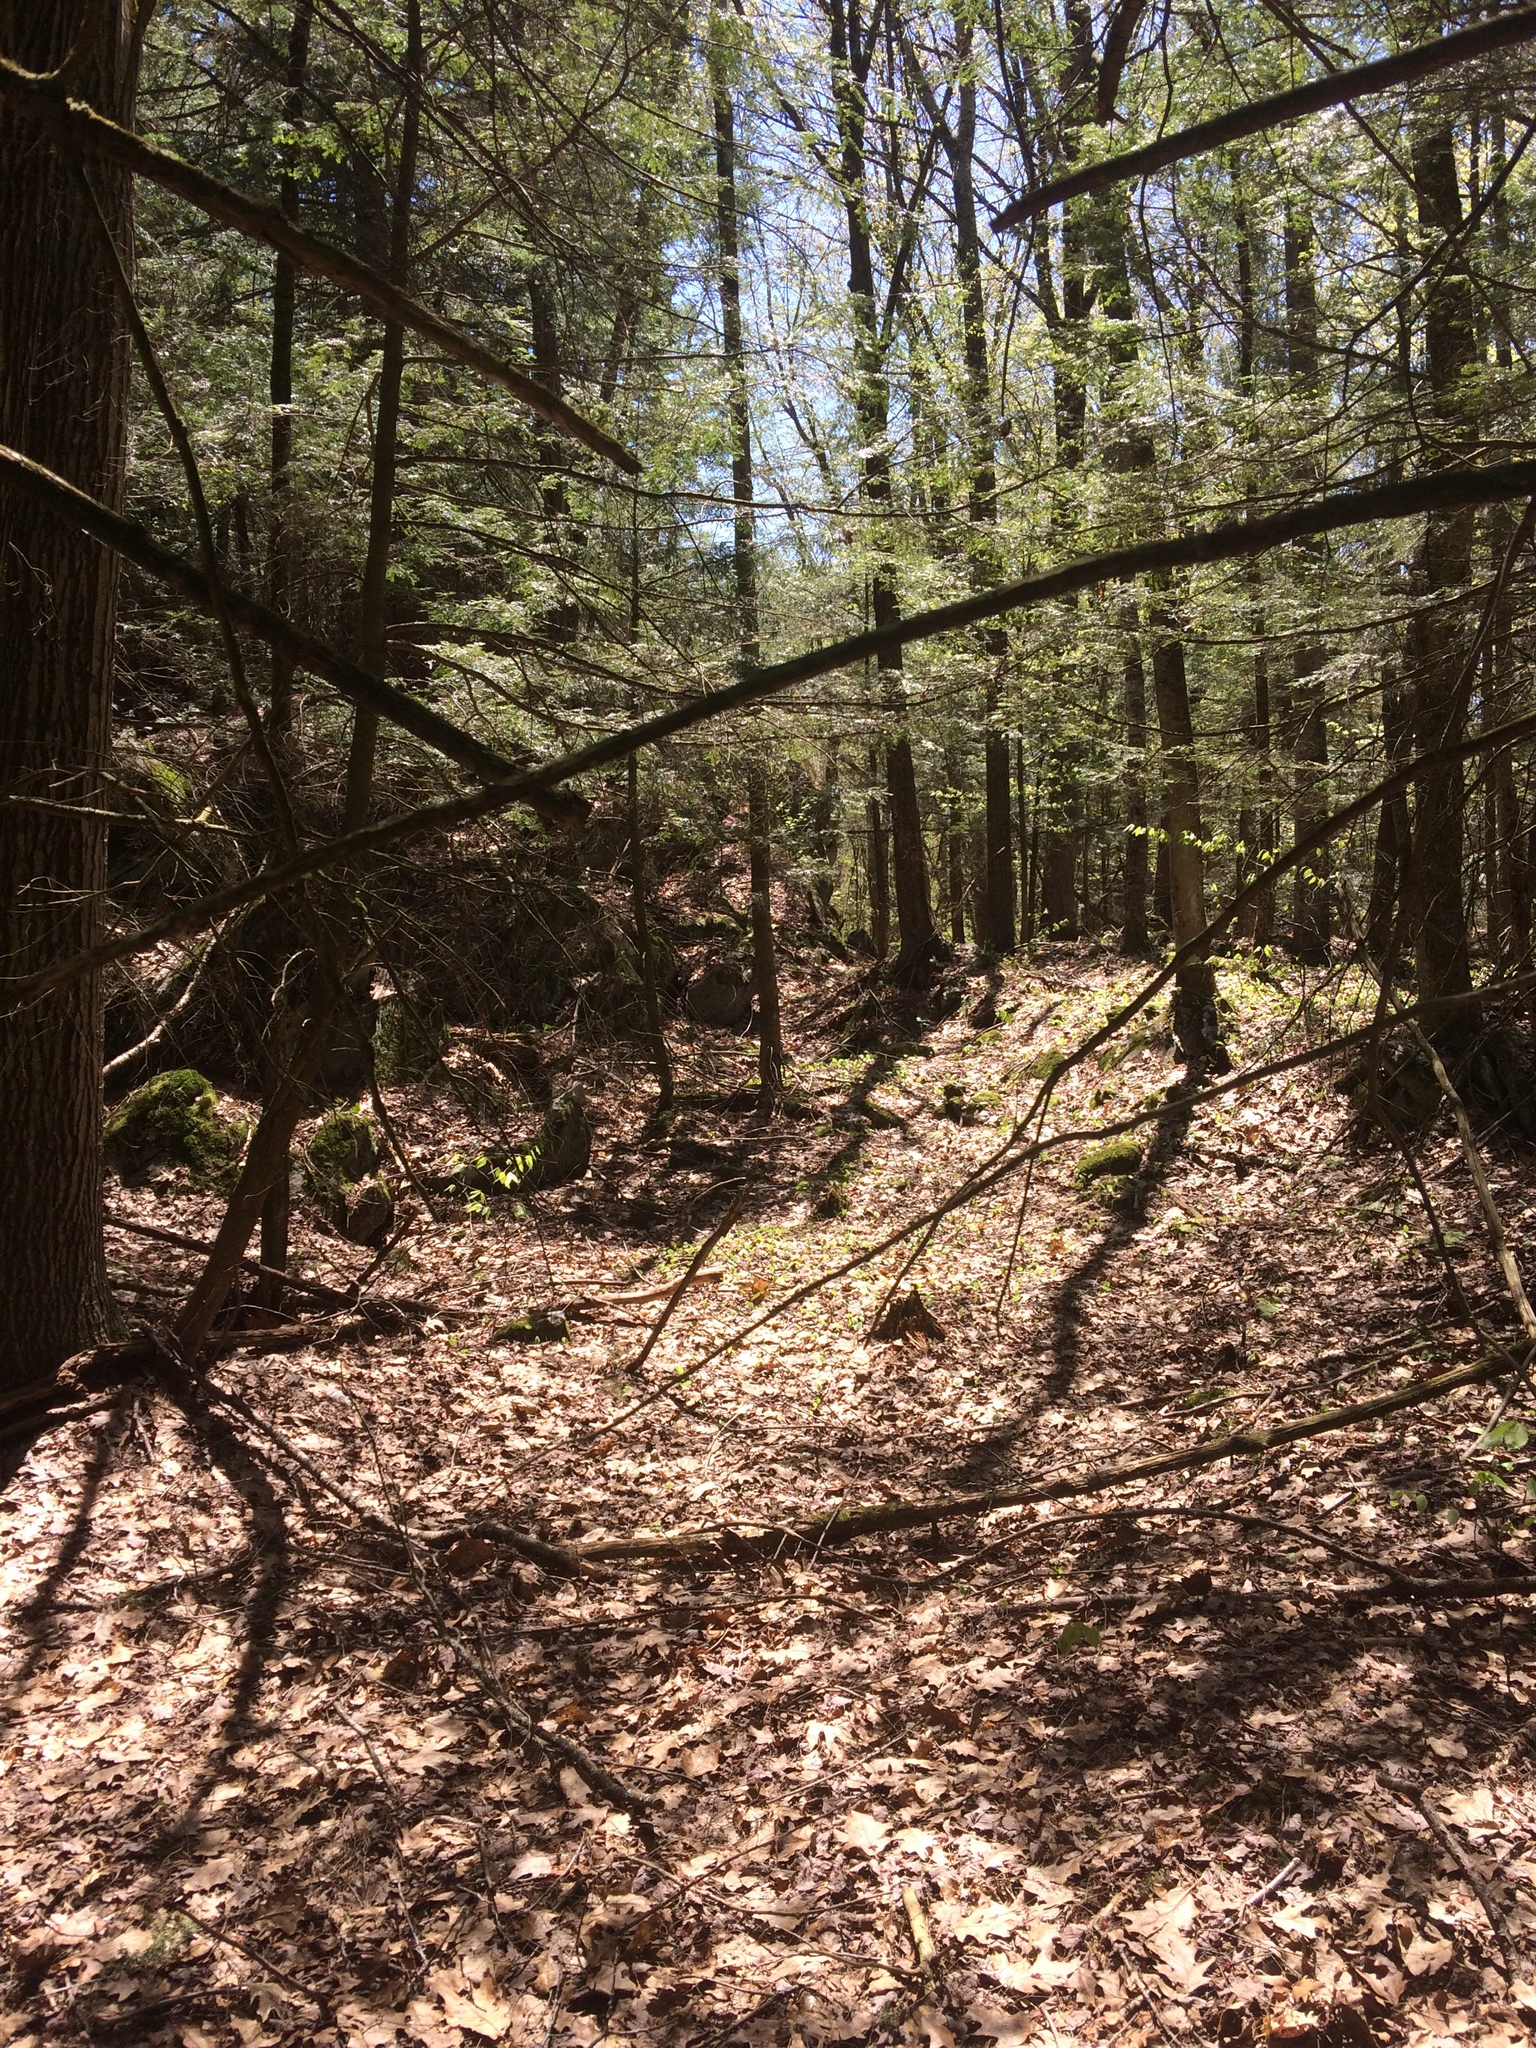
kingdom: Plantae
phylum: Tracheophyta
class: Pinopsida
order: Pinales
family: Pinaceae
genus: Tsuga
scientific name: Tsuga canadensis
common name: Eastern hemlock
